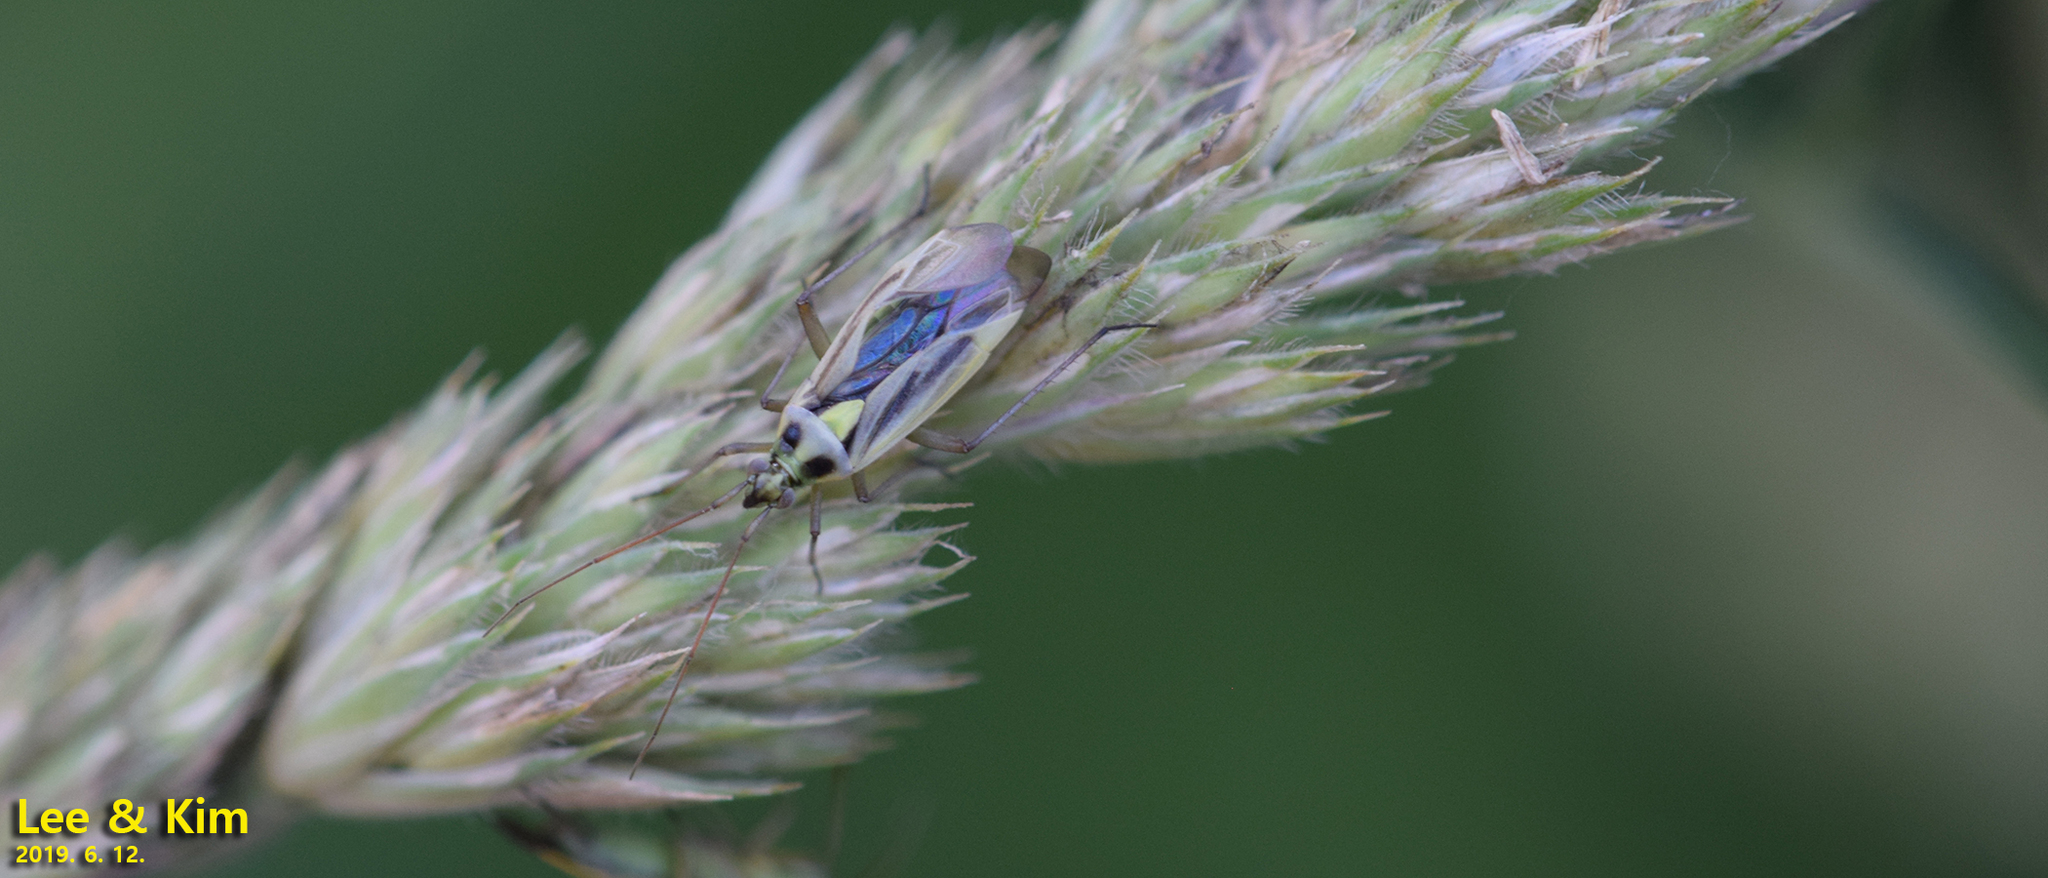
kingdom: Animalia
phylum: Arthropoda
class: Insecta
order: Hemiptera
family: Miridae
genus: Stenotus
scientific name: Stenotus binotatus
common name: Plant bug
